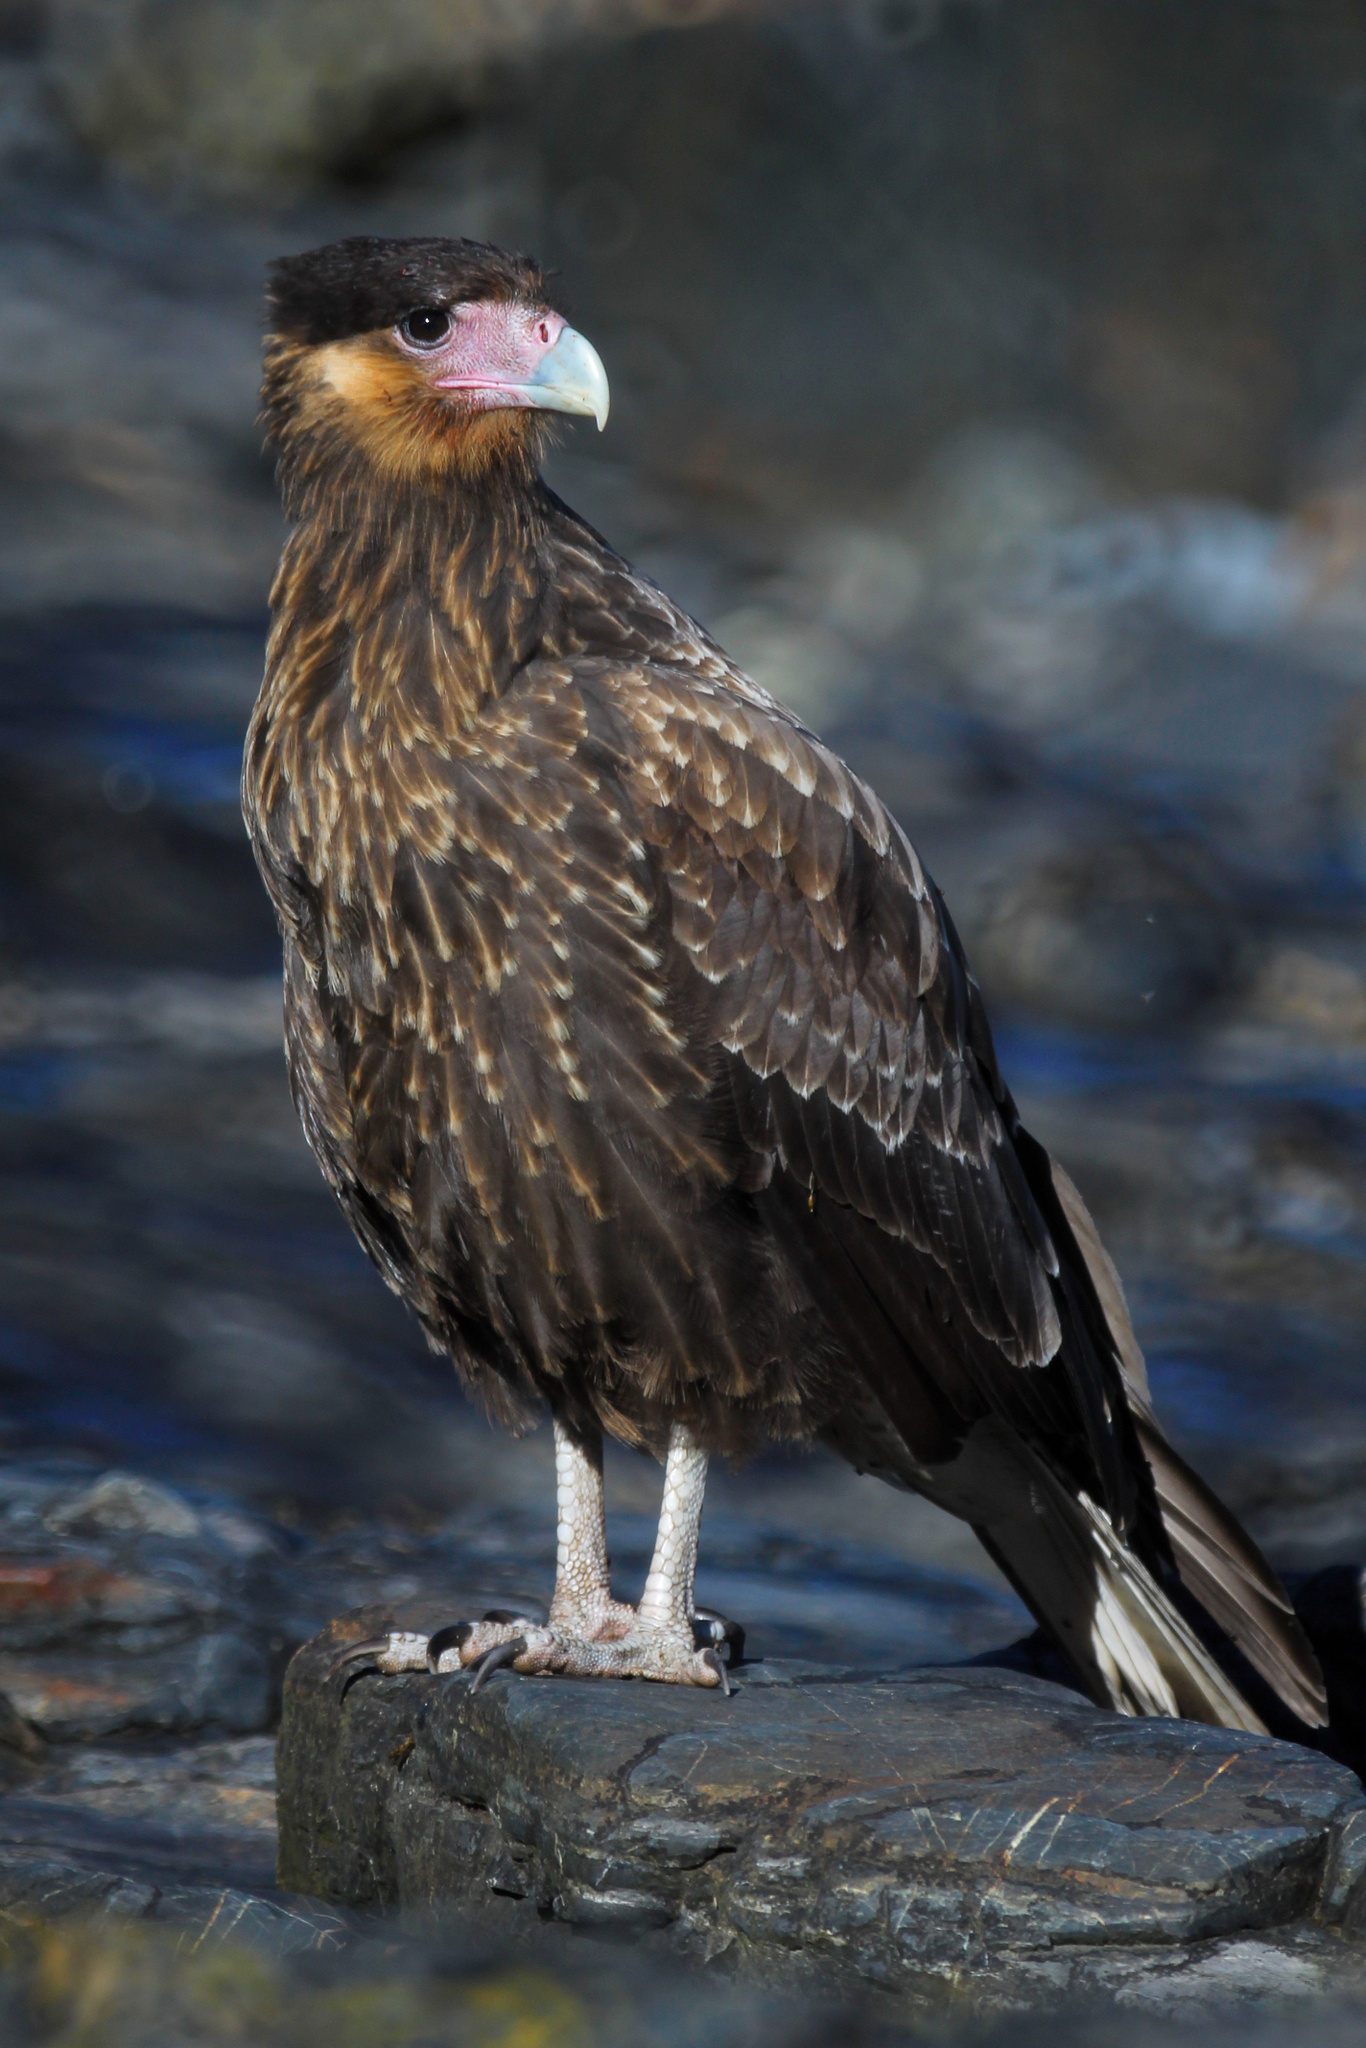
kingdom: Animalia
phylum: Chordata
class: Aves
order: Falconiformes
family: Falconidae
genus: Caracara
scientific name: Caracara plancus
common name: Southern caracara
